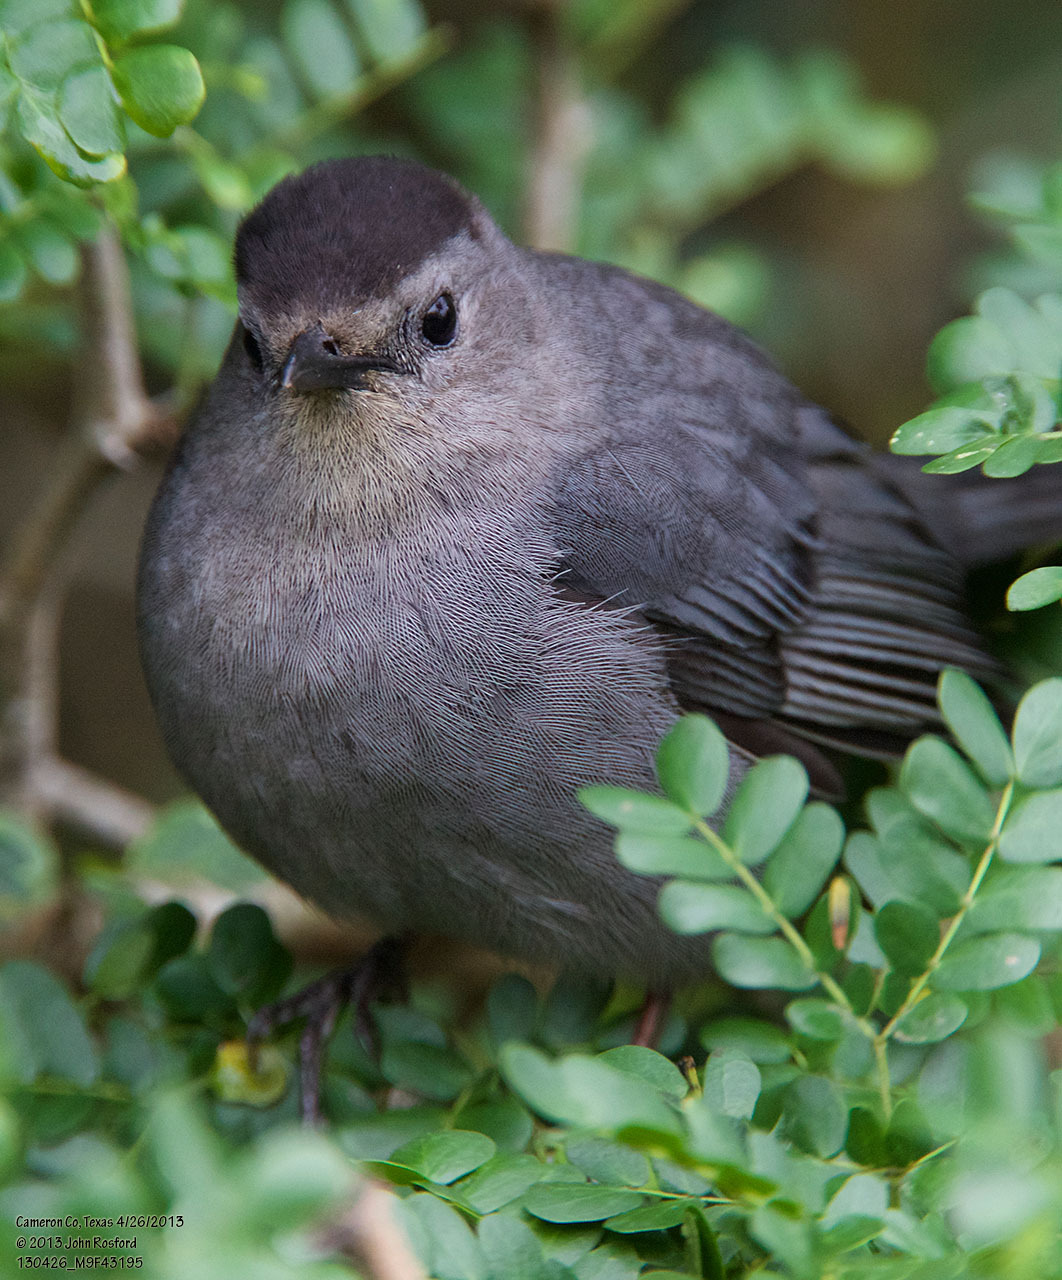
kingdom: Animalia
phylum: Chordata
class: Aves
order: Passeriformes
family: Mimidae
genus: Dumetella
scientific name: Dumetella carolinensis
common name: Gray catbird
